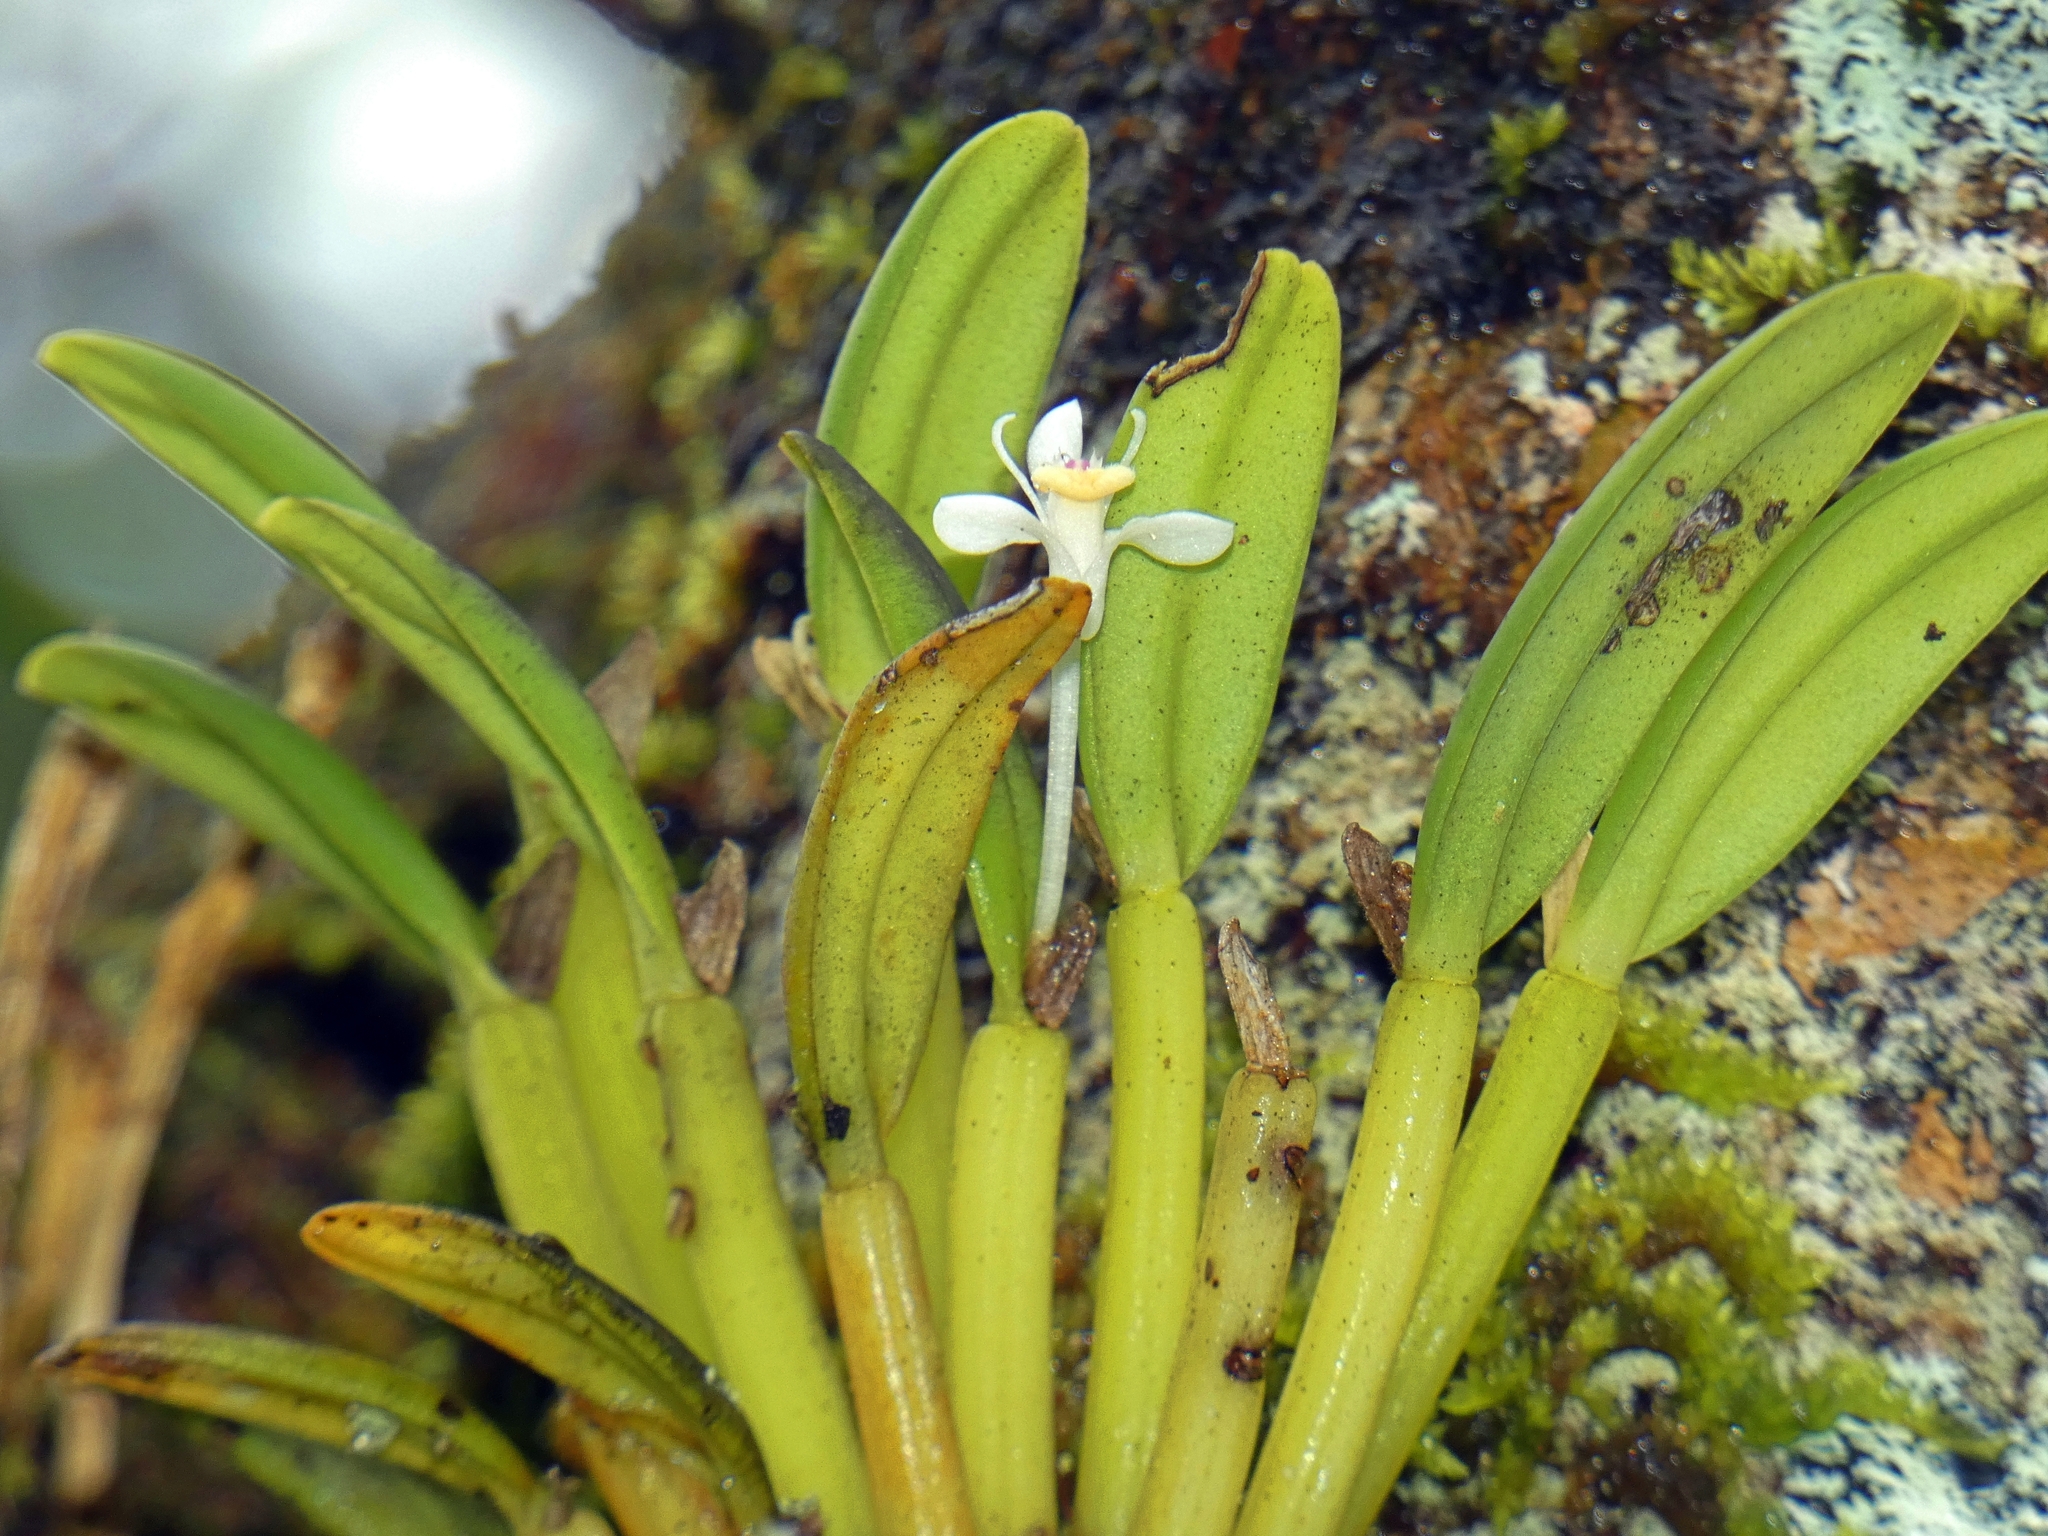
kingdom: Plantae
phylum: Tracheophyta
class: Liliopsida
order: Asparagales
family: Orchidaceae
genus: Dendrobium
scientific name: Dendrobium taylorii
